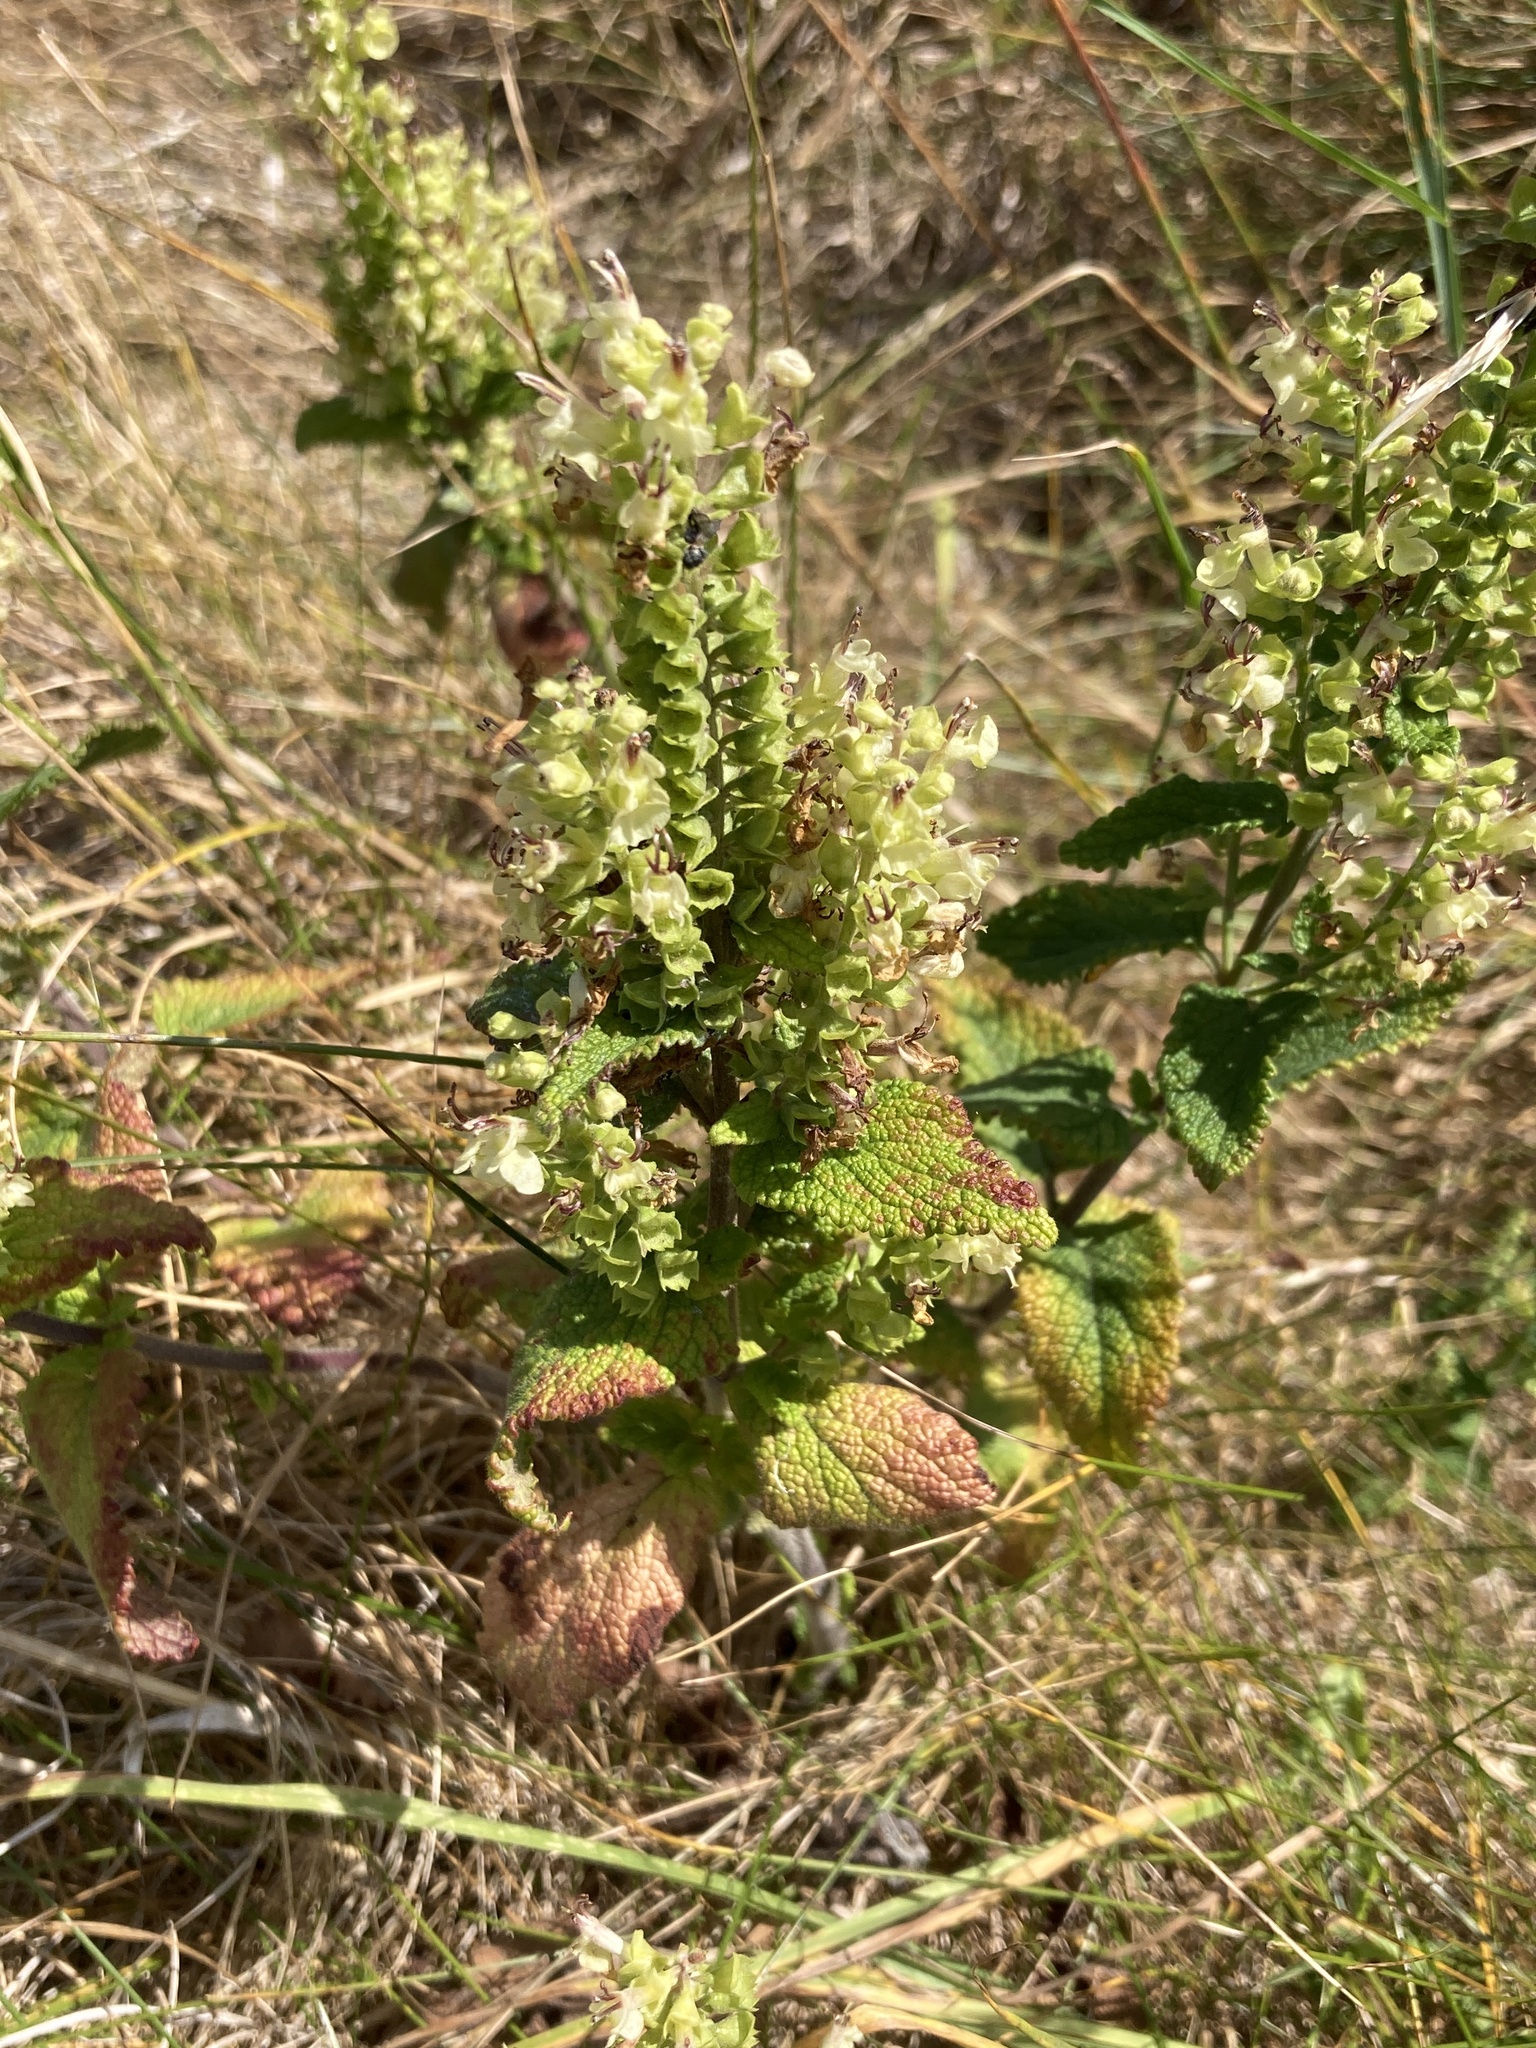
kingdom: Plantae
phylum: Tracheophyta
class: Magnoliopsida
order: Lamiales
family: Lamiaceae
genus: Teucrium
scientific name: Teucrium scorodonia
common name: Woodland germander
